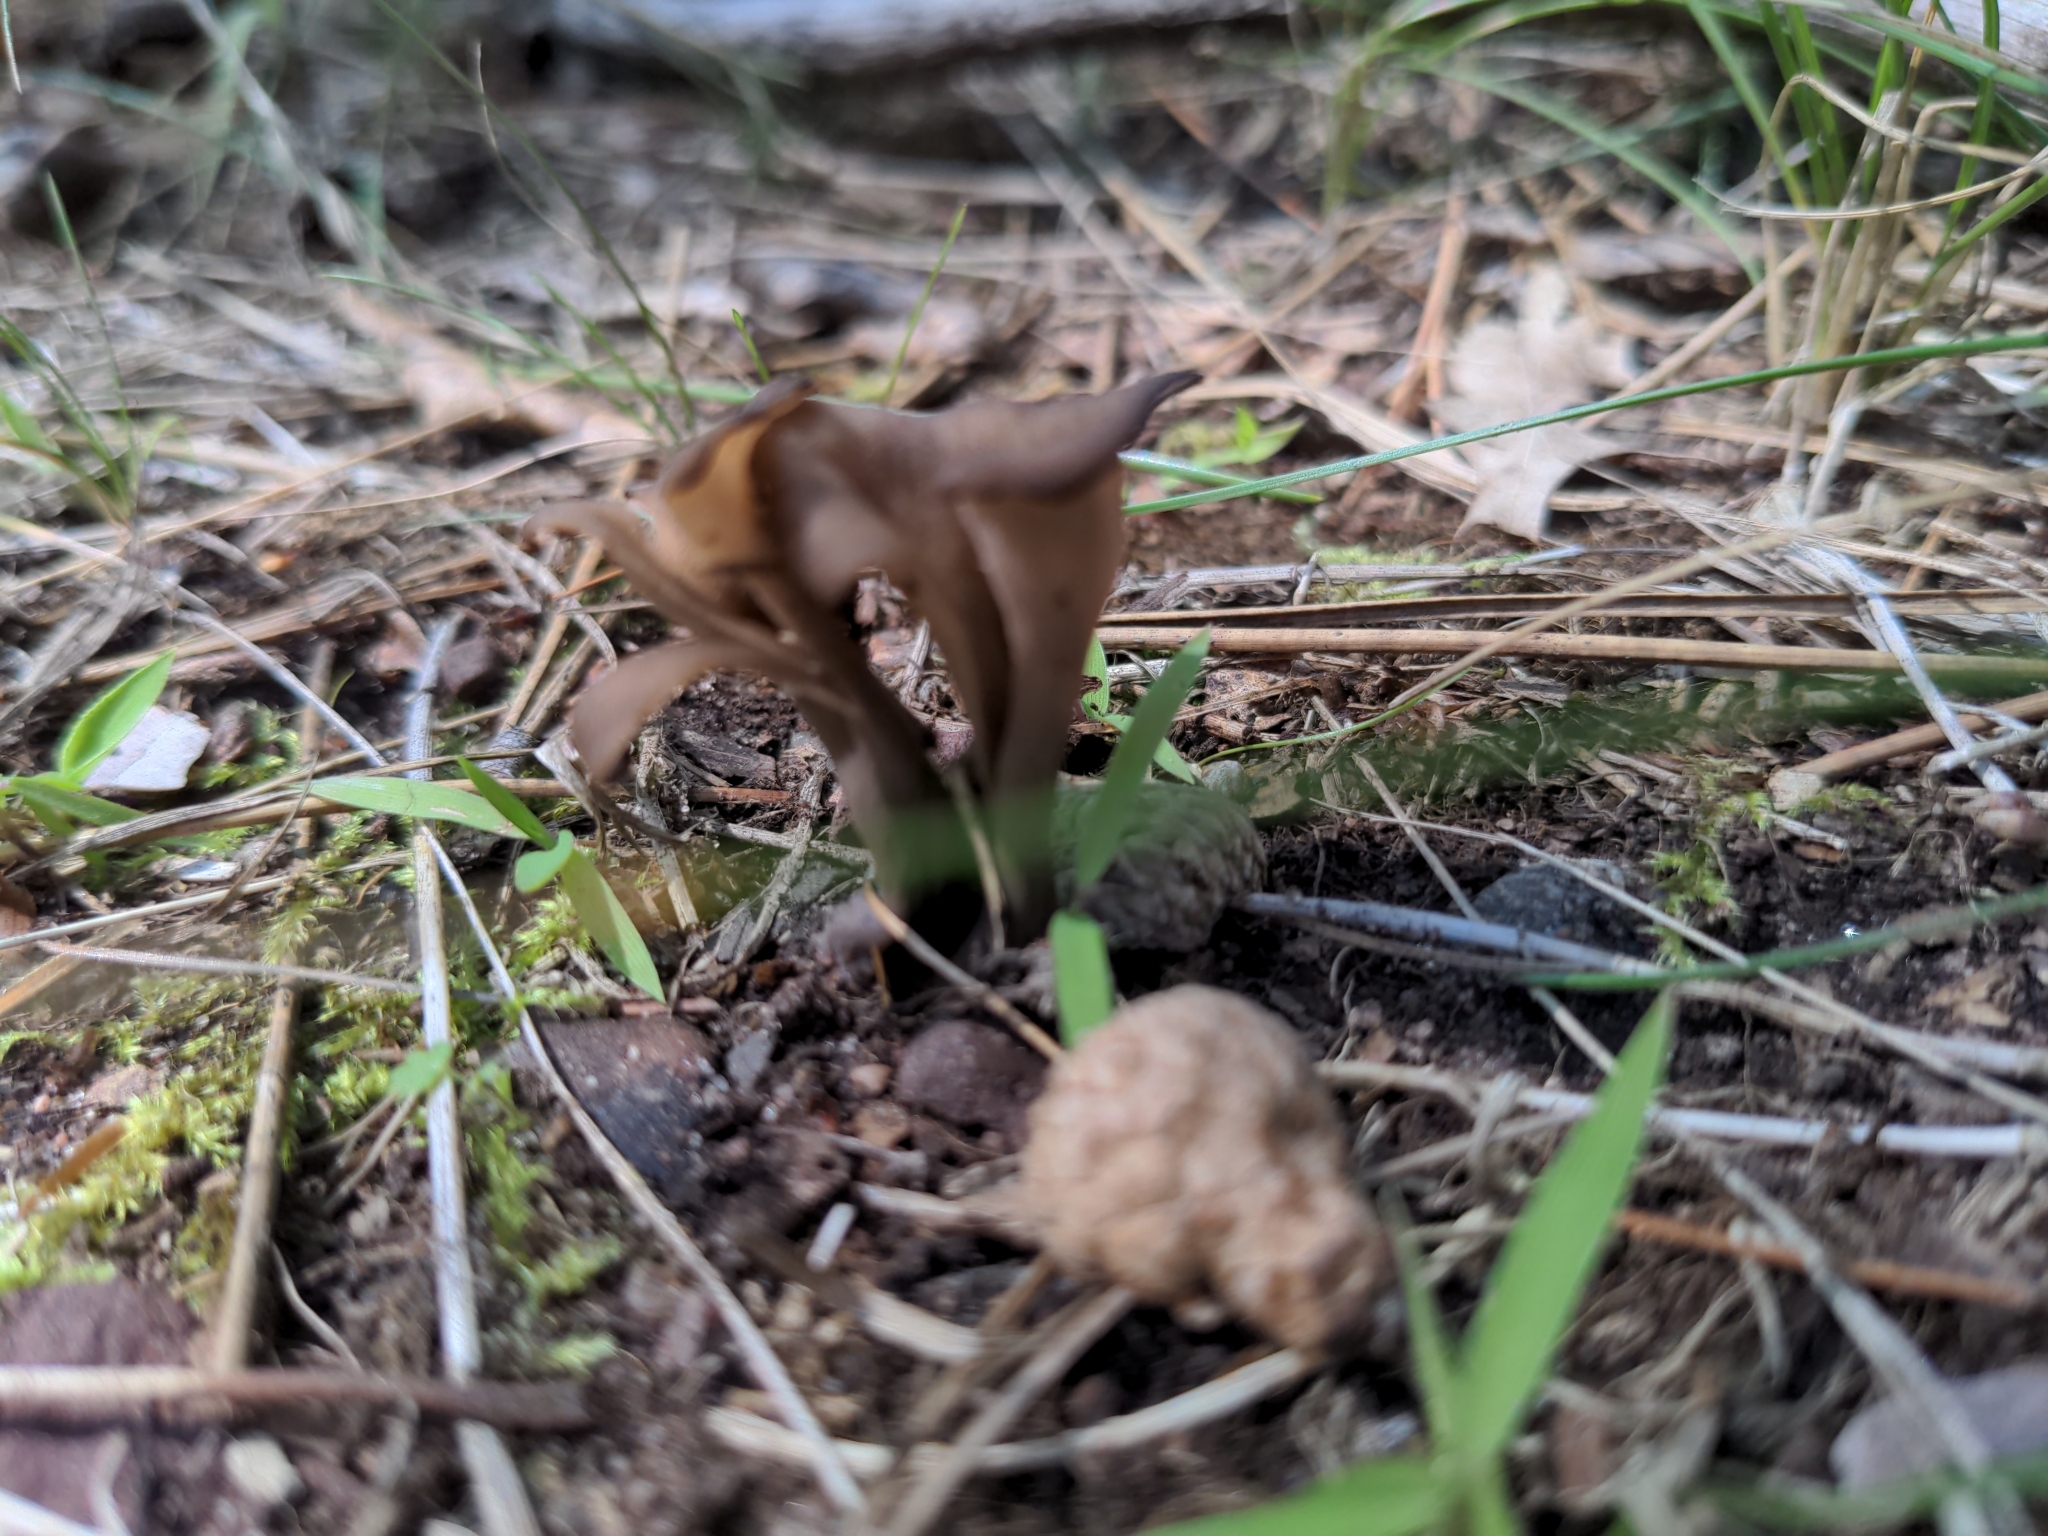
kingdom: Fungi
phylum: Basidiomycota
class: Agaricomycetes
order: Cantharellales
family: Hydnaceae
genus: Craterellus
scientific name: Craterellus cornucopioides
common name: Horn of plenty
